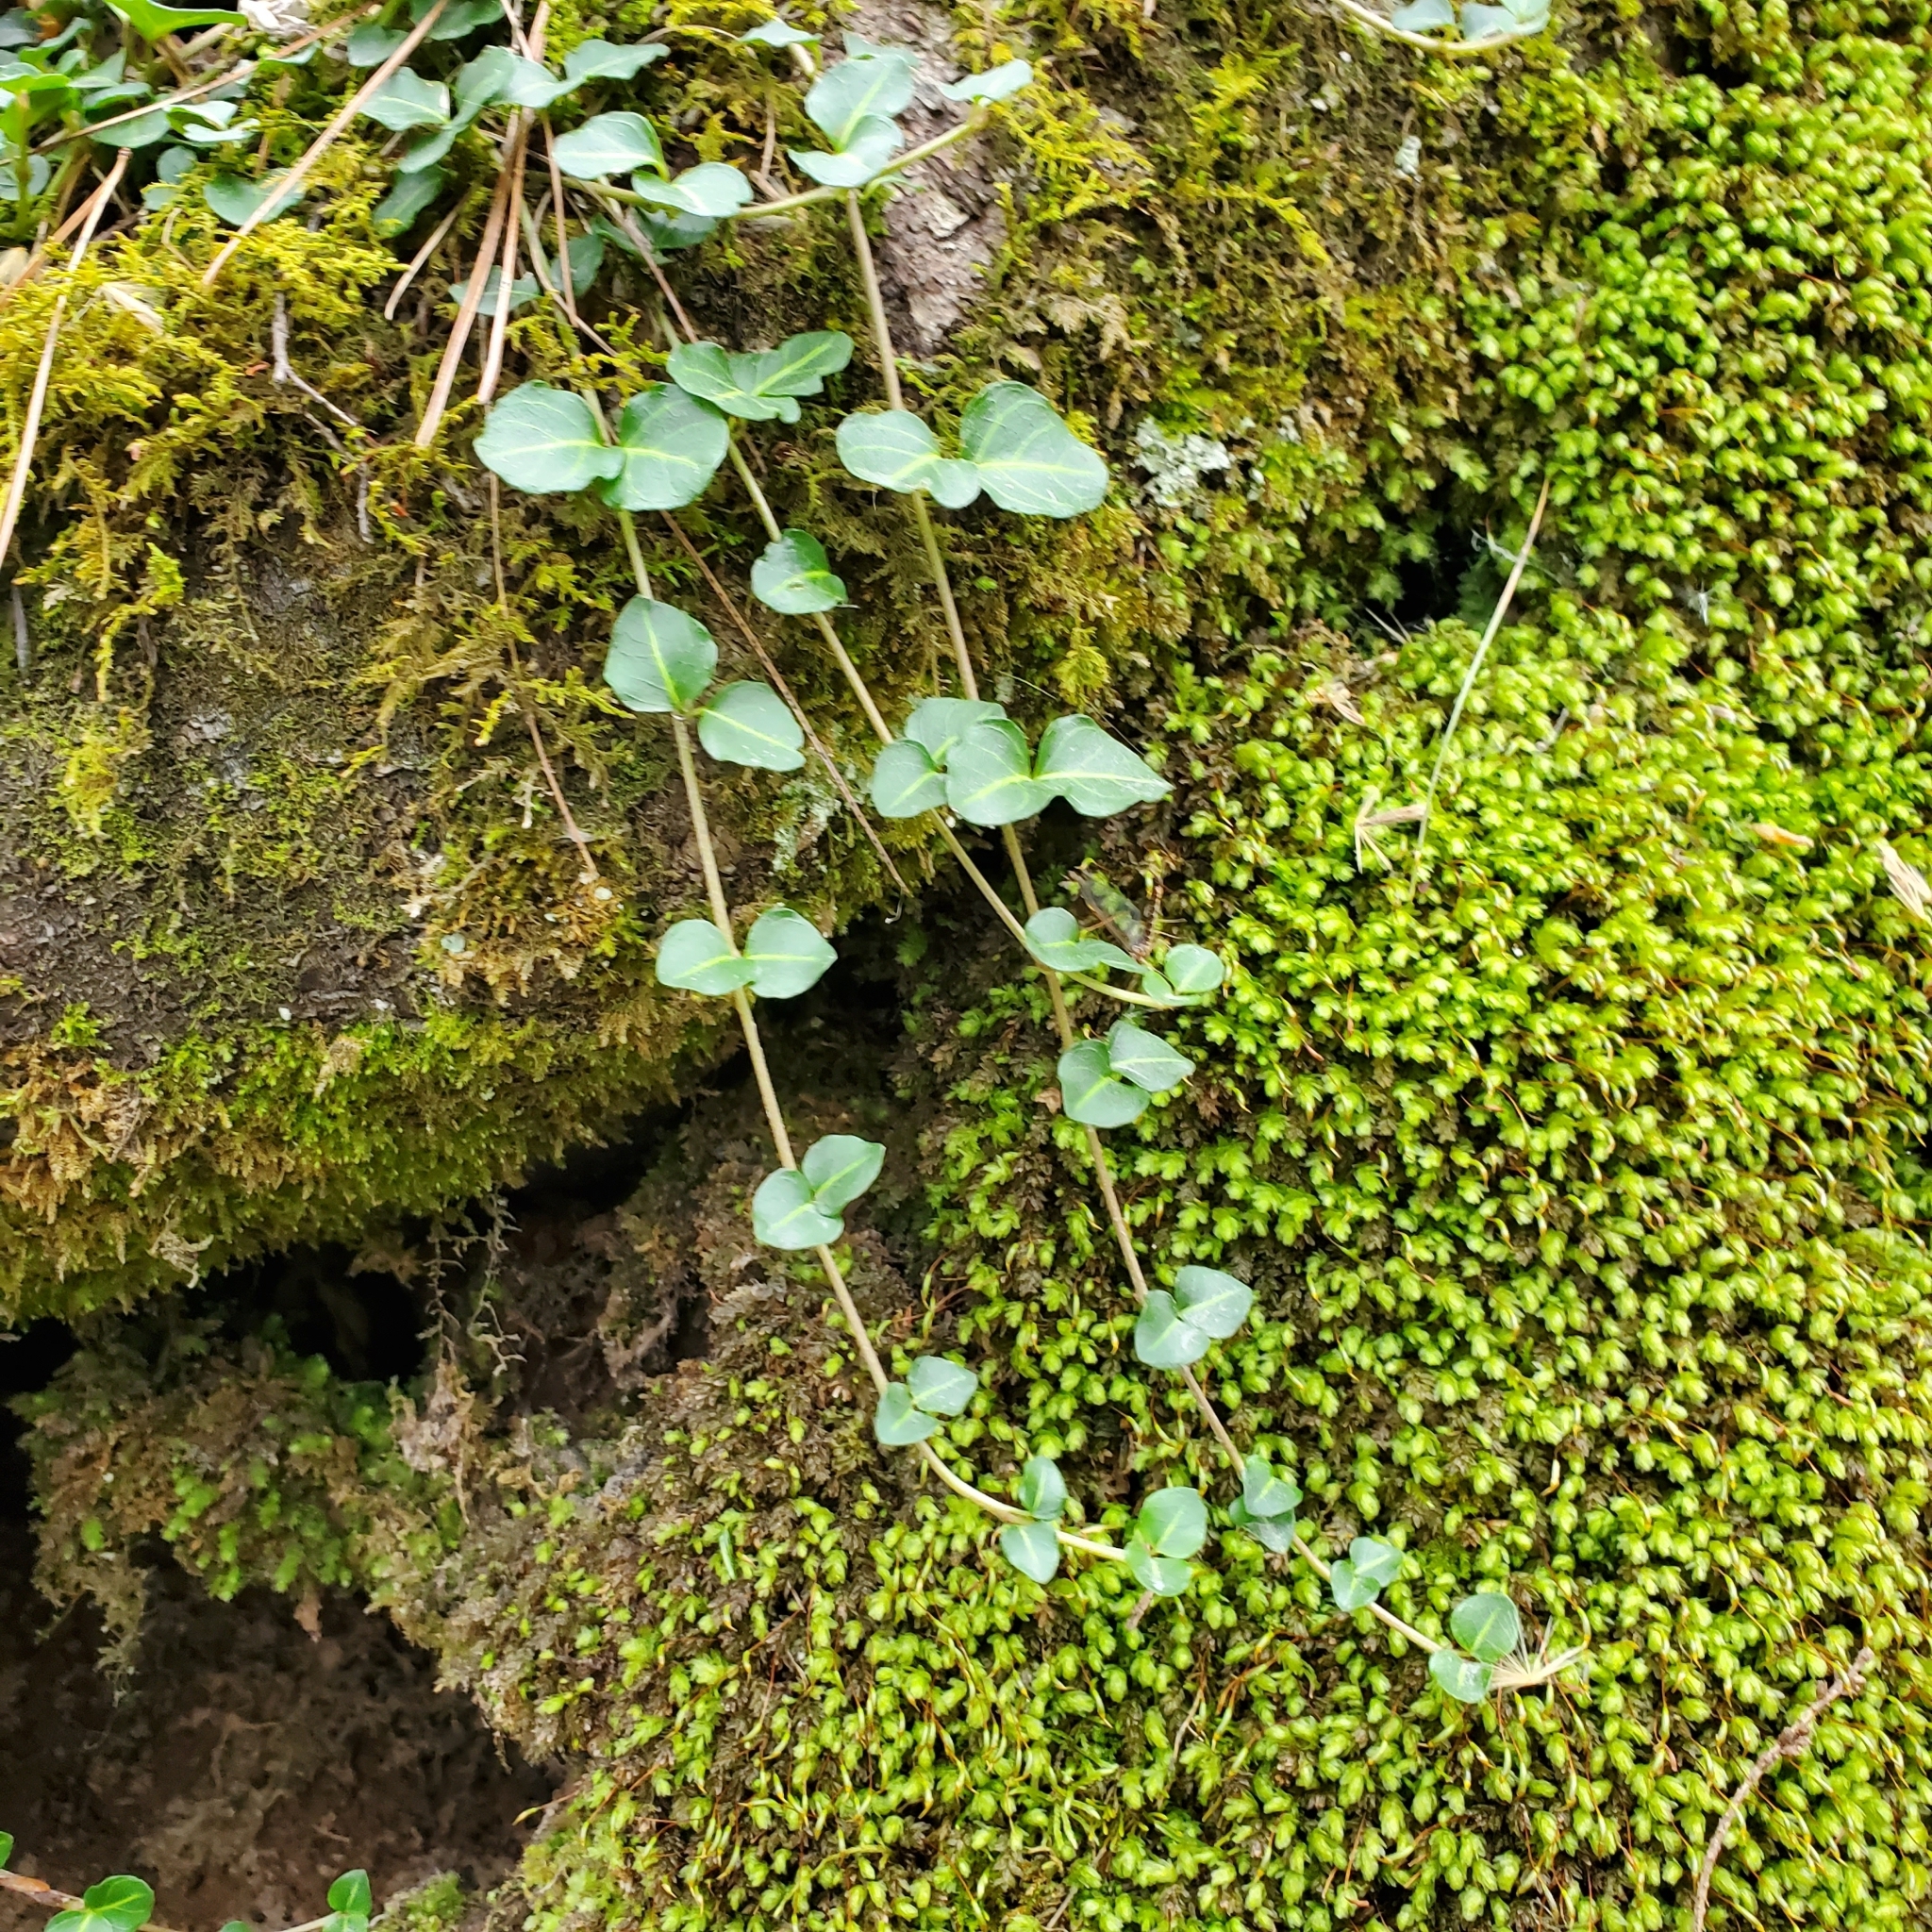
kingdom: Plantae
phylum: Tracheophyta
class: Magnoliopsida
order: Gentianales
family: Rubiaceae
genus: Mitchella
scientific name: Mitchella repens
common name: Partridge-berry
